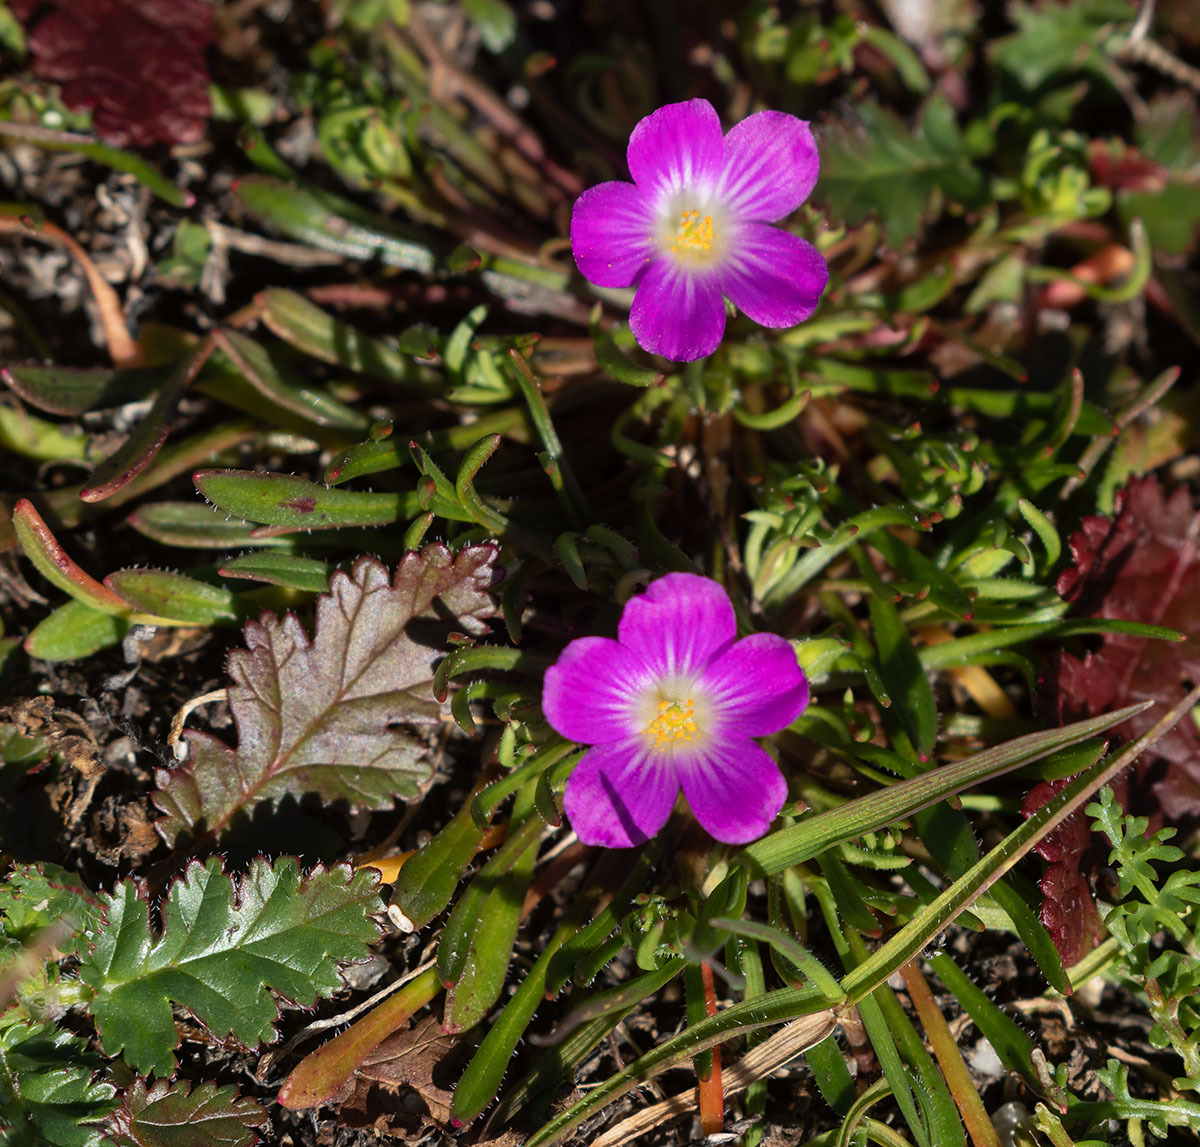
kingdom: Plantae
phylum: Tracheophyta
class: Magnoliopsida
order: Caryophyllales
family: Montiaceae
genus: Calandrinia
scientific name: Calandrinia menziesii
